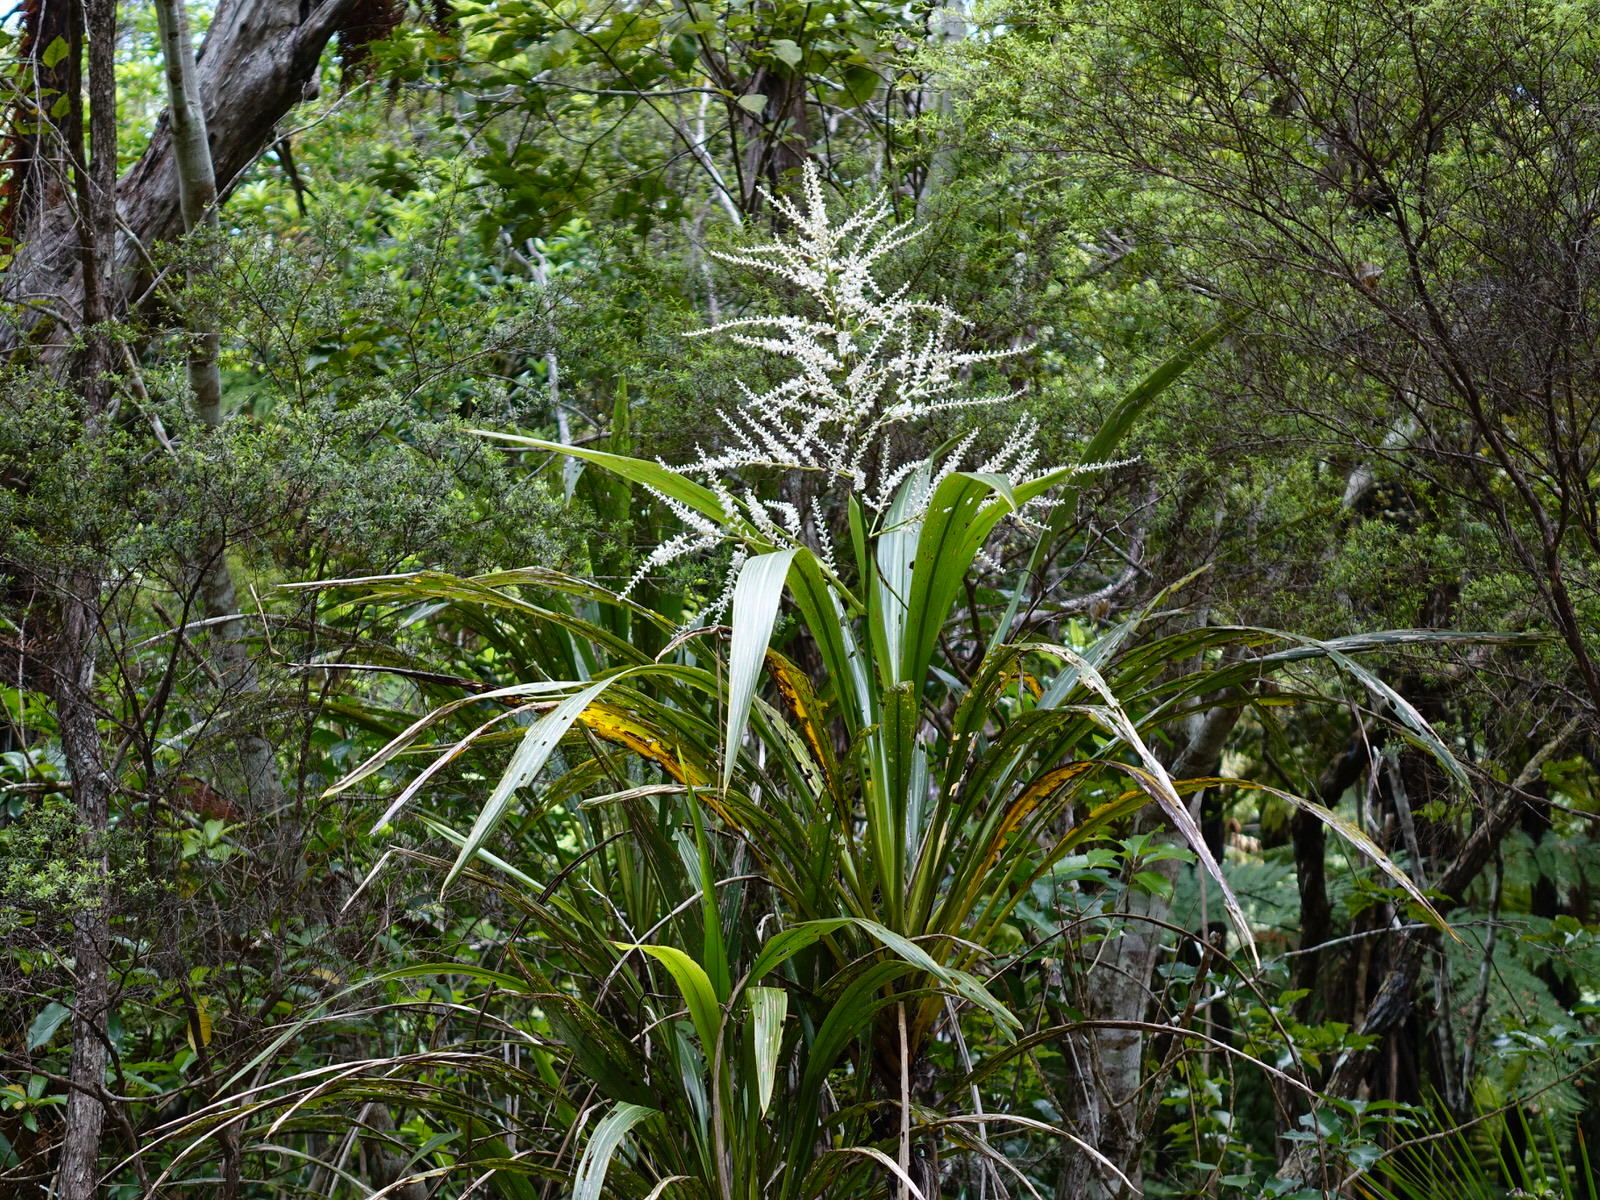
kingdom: Plantae
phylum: Tracheophyta
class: Liliopsida
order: Asparagales
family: Asparagaceae
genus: Cordyline
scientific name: Cordyline banksii
